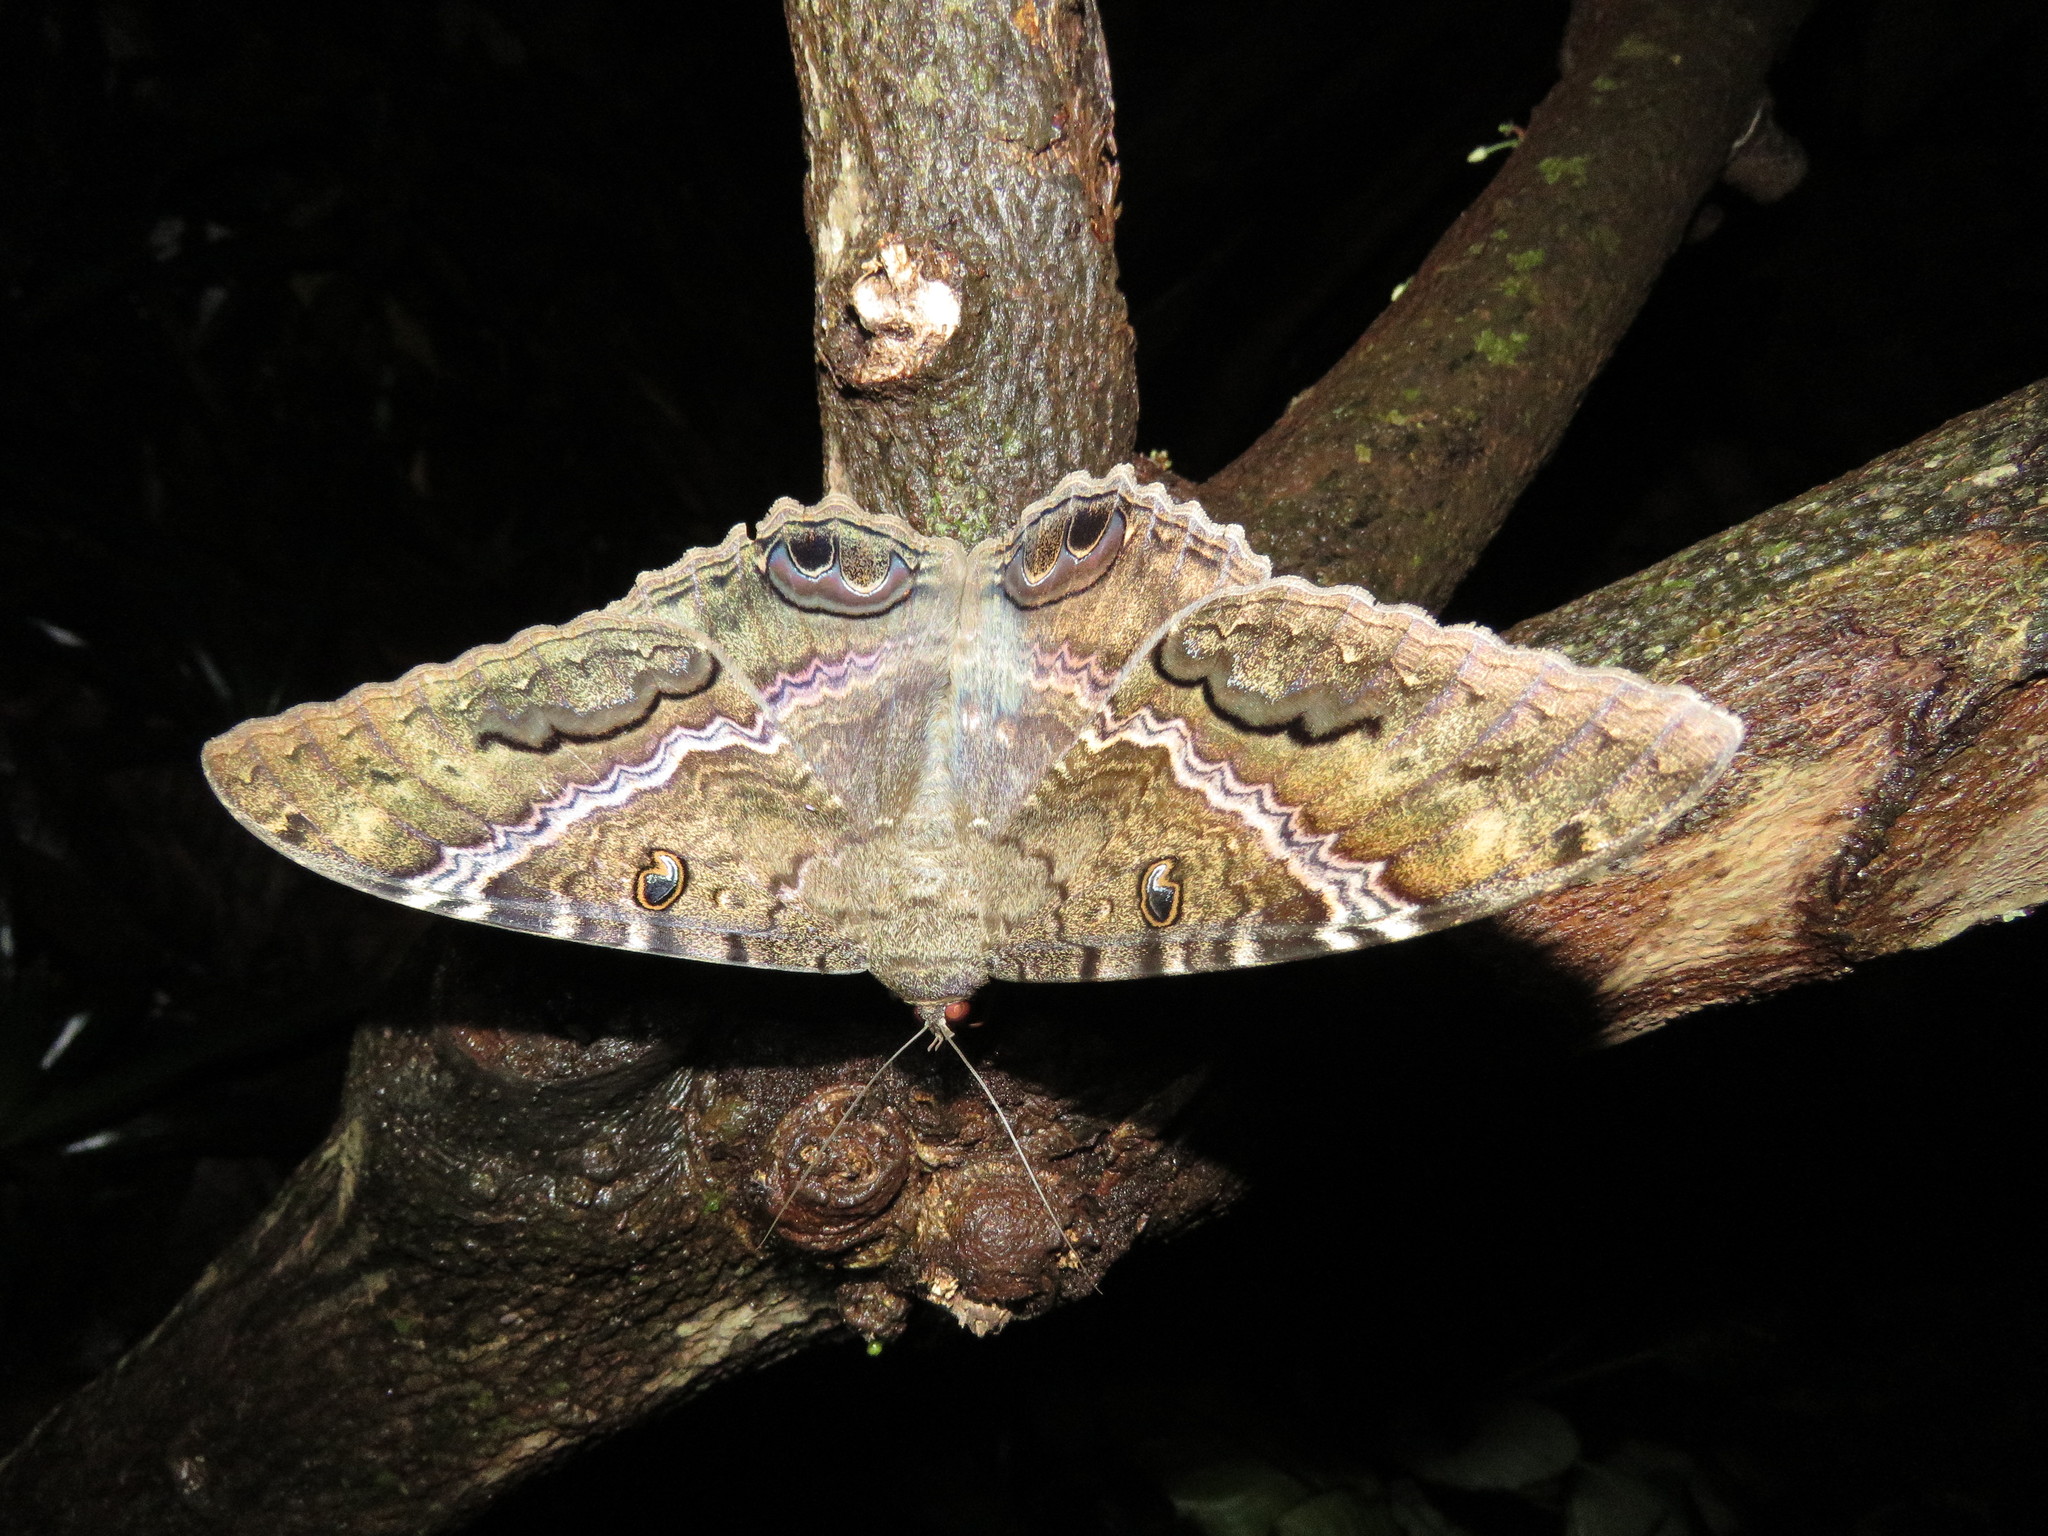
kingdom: Animalia
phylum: Arthropoda
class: Insecta
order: Lepidoptera
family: Erebidae
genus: Ascalapha
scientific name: Ascalapha odorata
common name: Black witch
